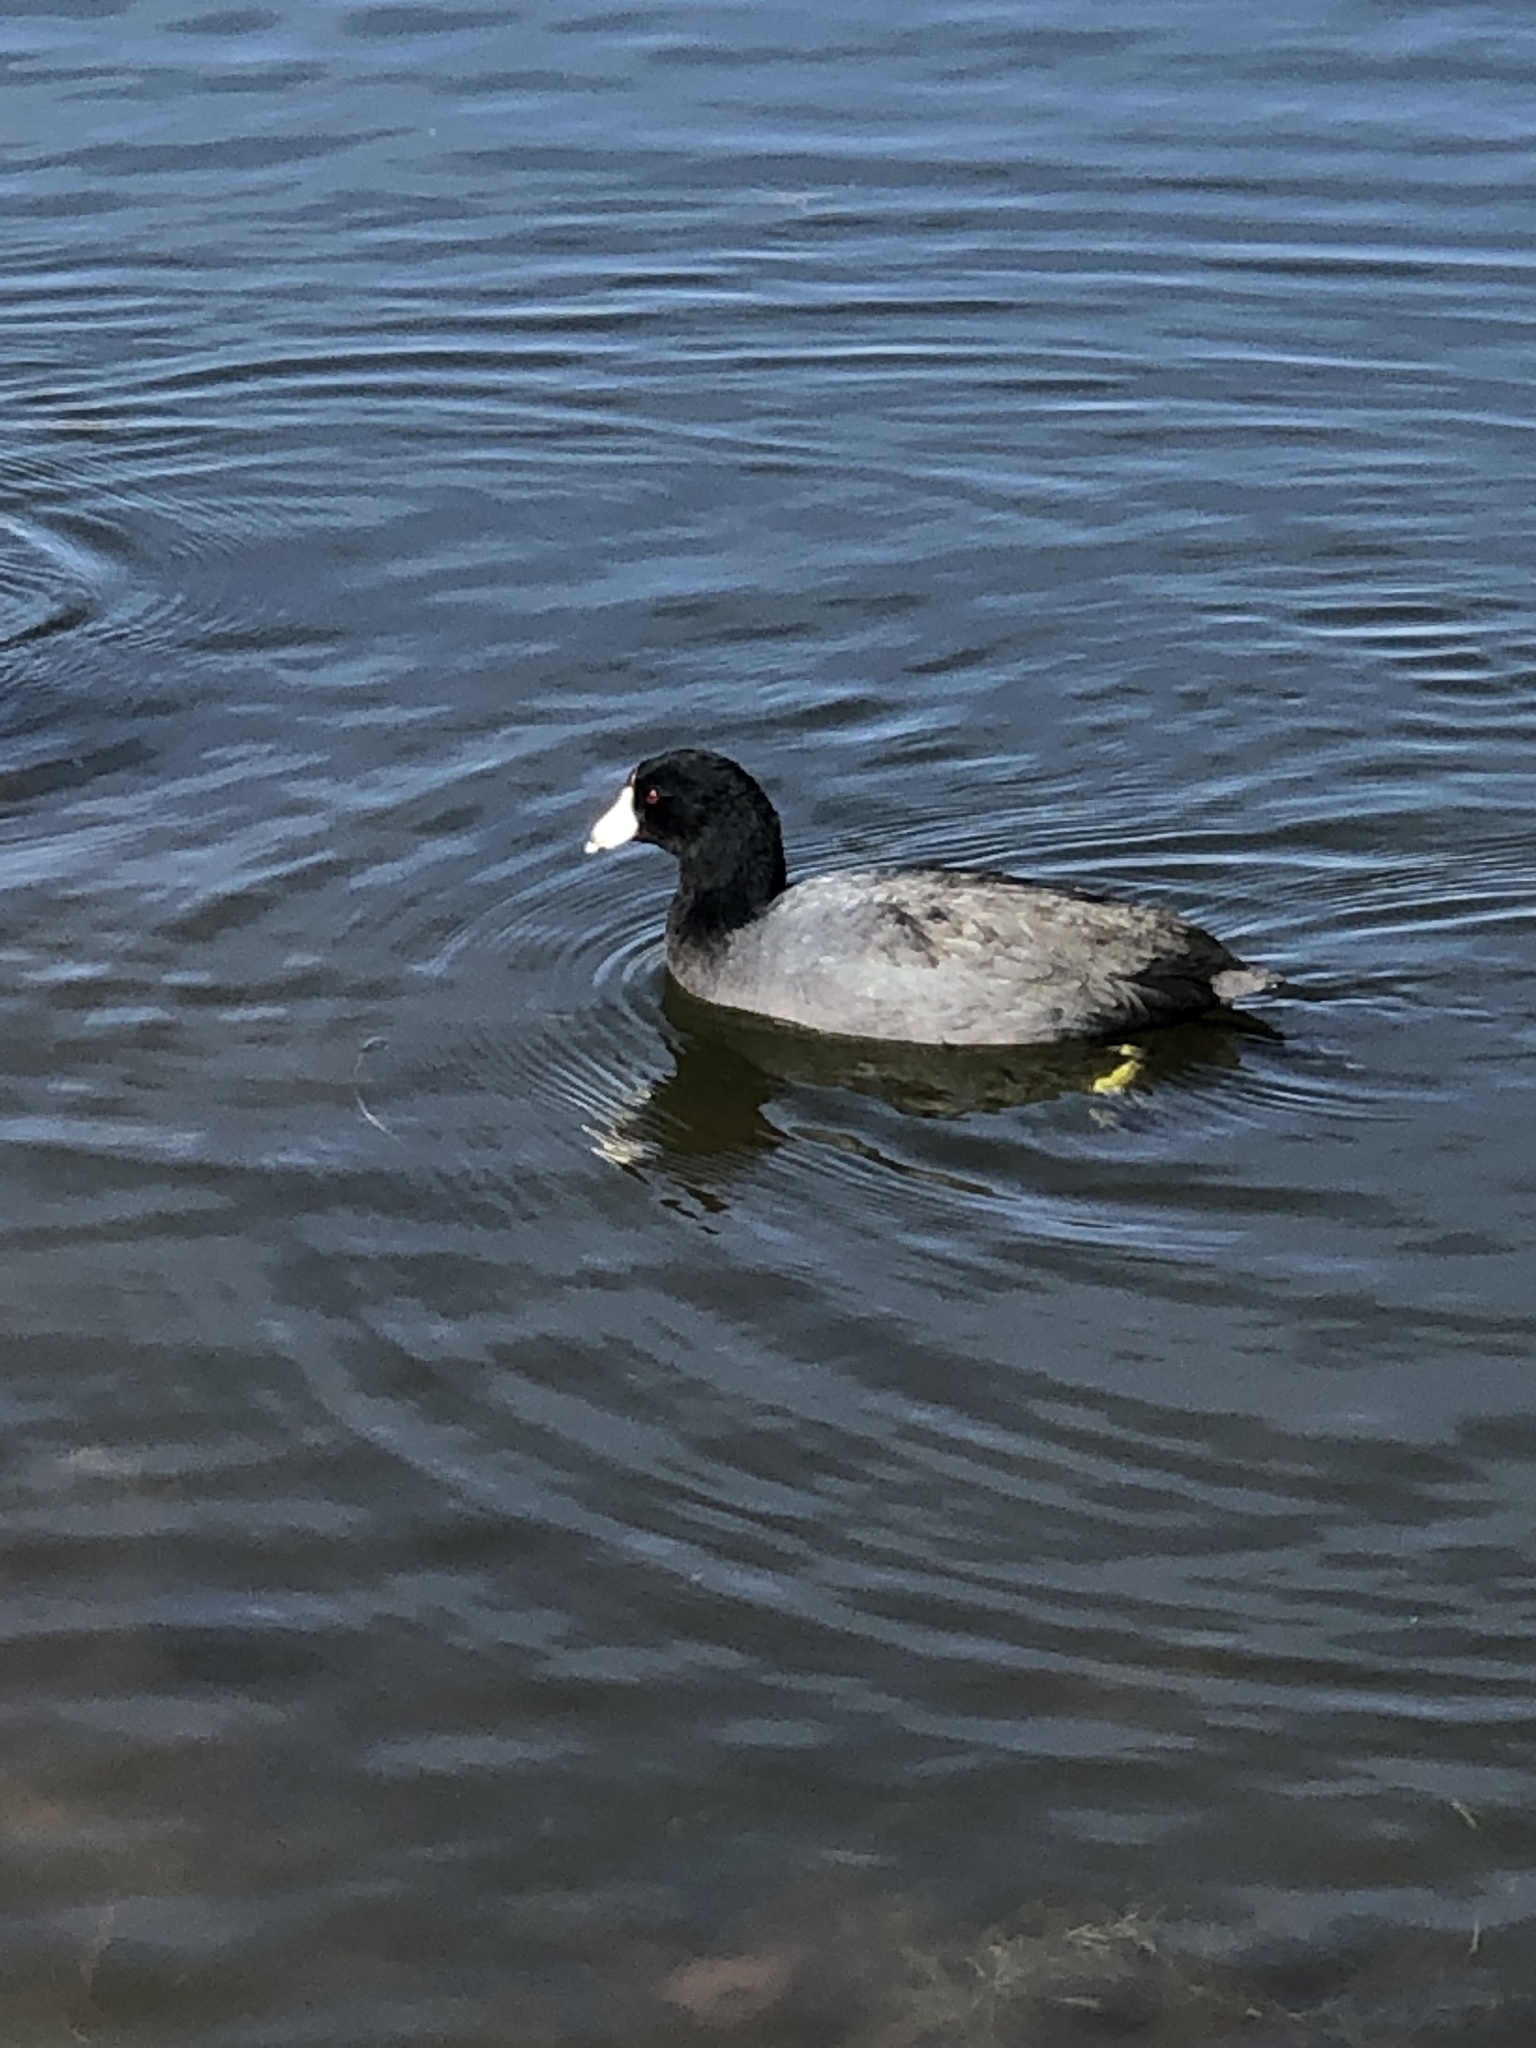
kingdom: Animalia
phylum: Chordata
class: Aves
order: Gruiformes
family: Rallidae
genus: Fulica
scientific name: Fulica americana
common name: American coot
